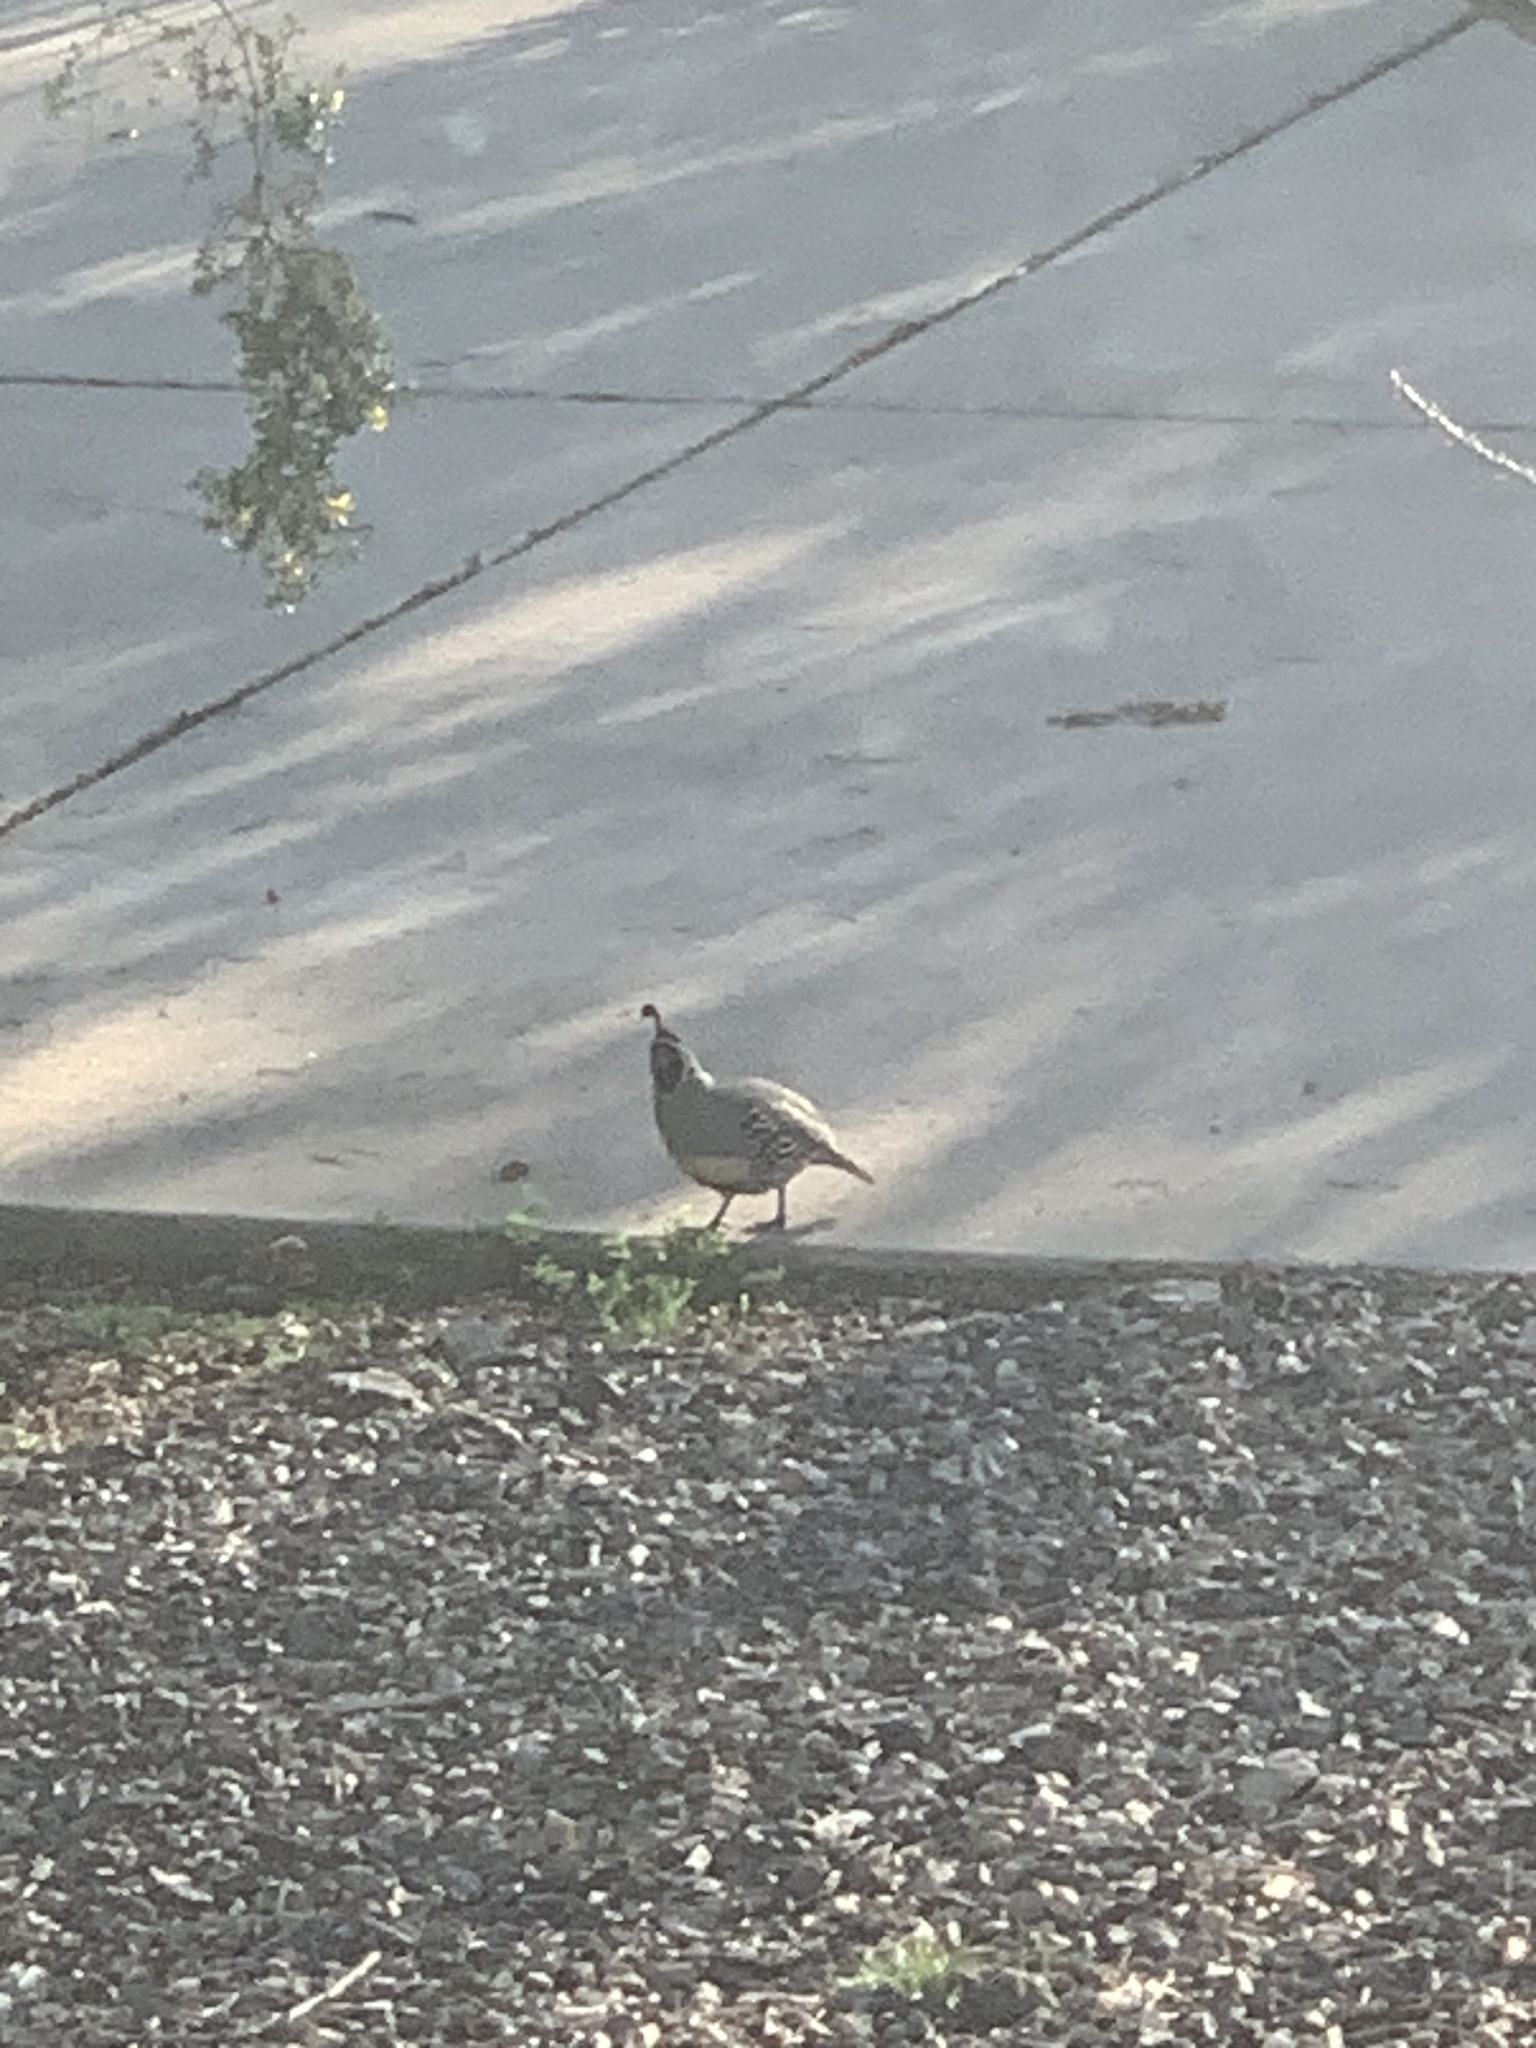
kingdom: Animalia
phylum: Chordata
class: Aves
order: Galliformes
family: Odontophoridae
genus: Callipepla
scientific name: Callipepla gambelii
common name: Gambel's quail
